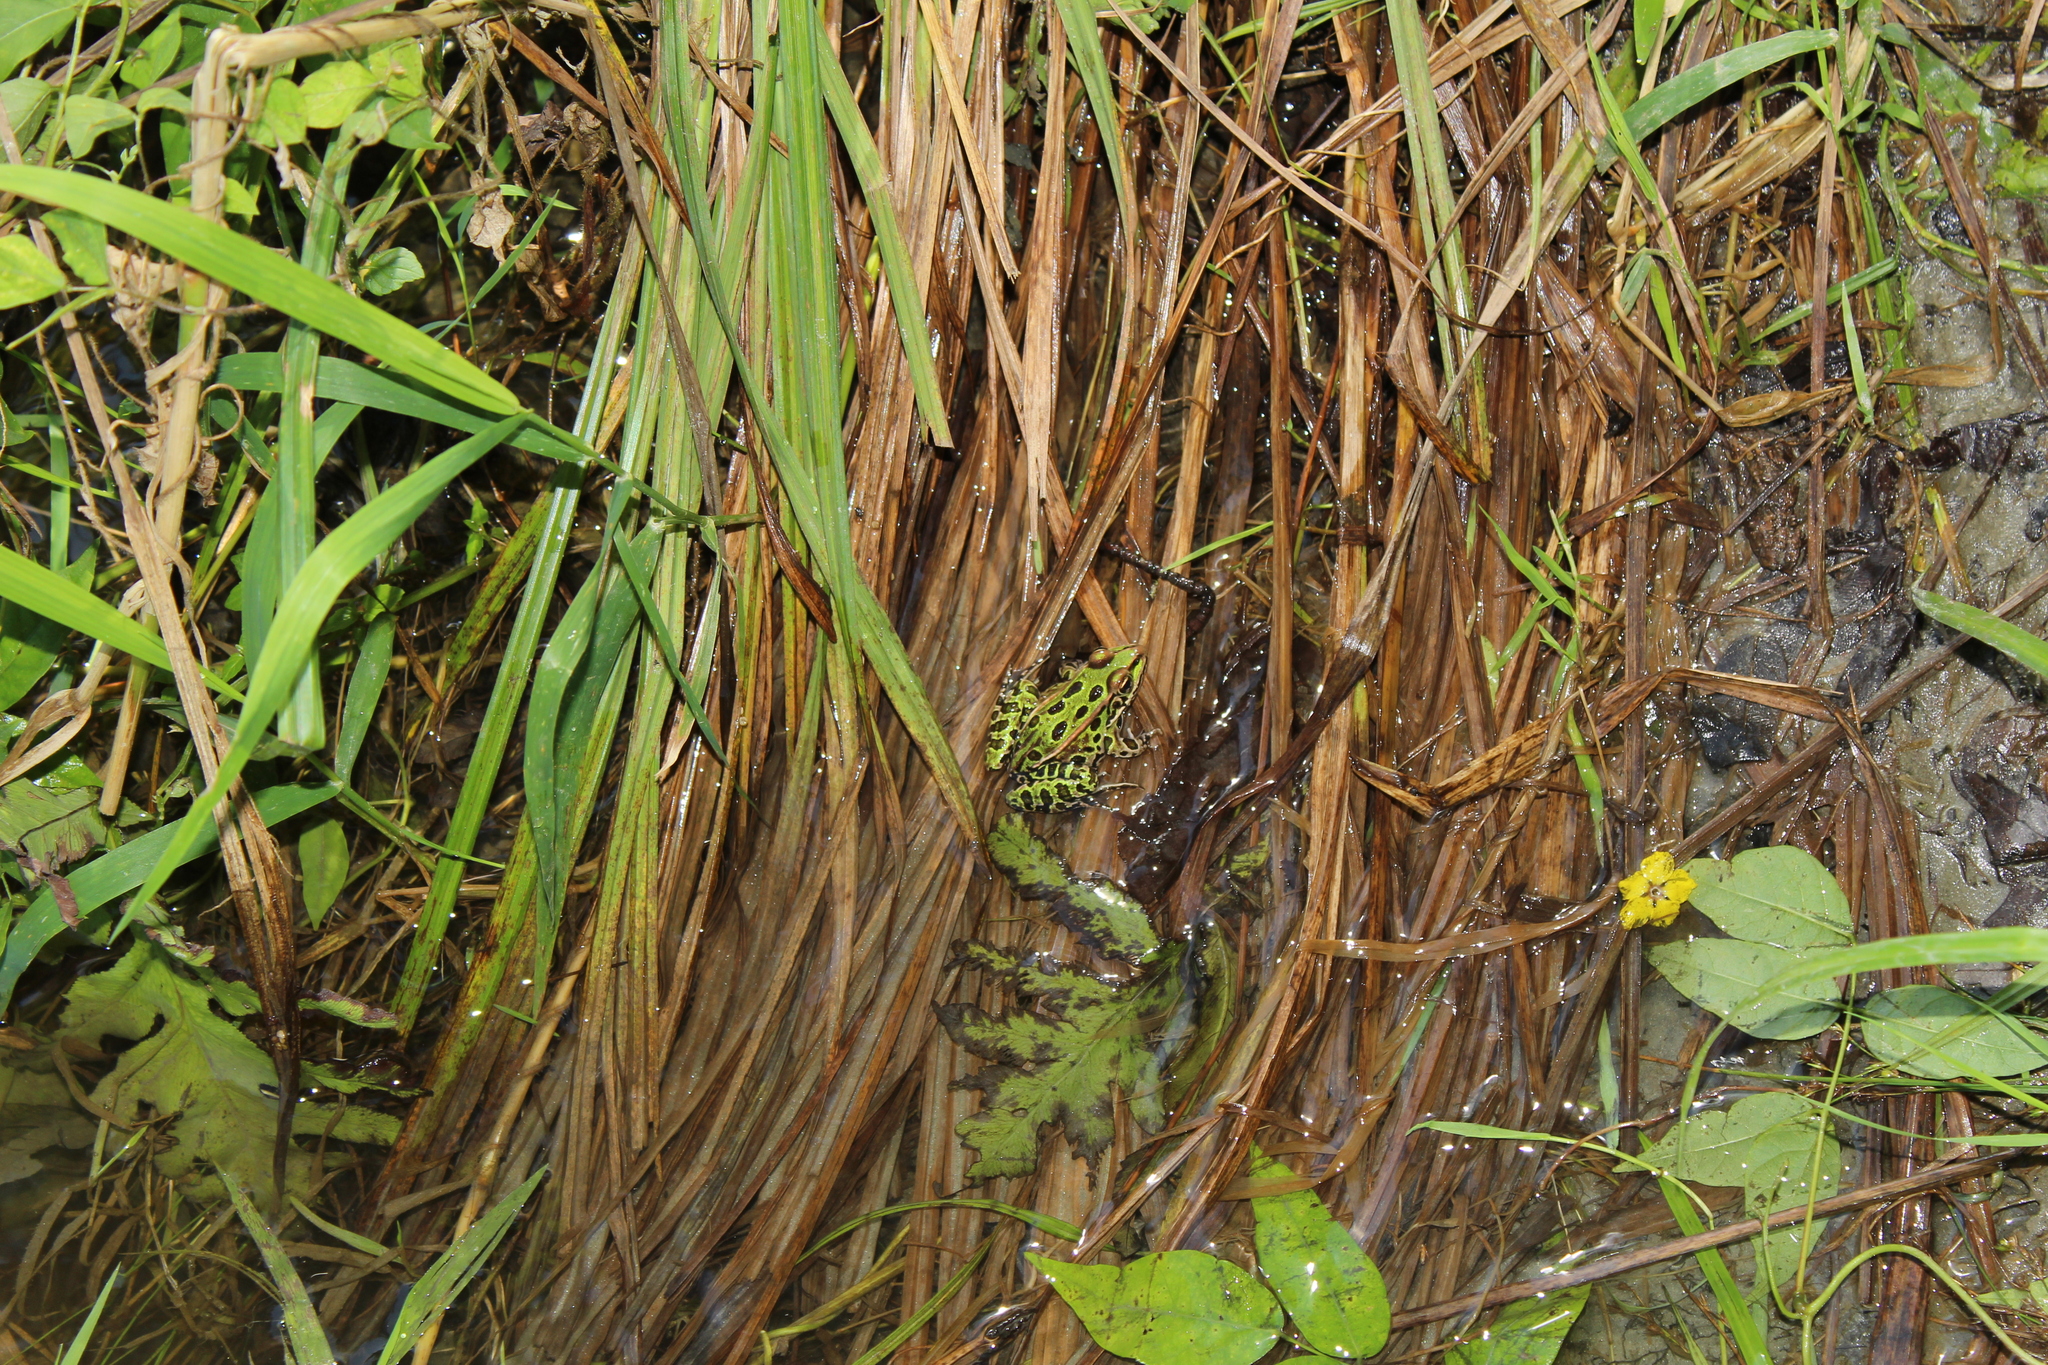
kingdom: Animalia
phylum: Chordata
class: Amphibia
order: Anura
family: Ranidae
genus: Lithobates
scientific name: Lithobates pipiens
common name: Northern leopard frog
